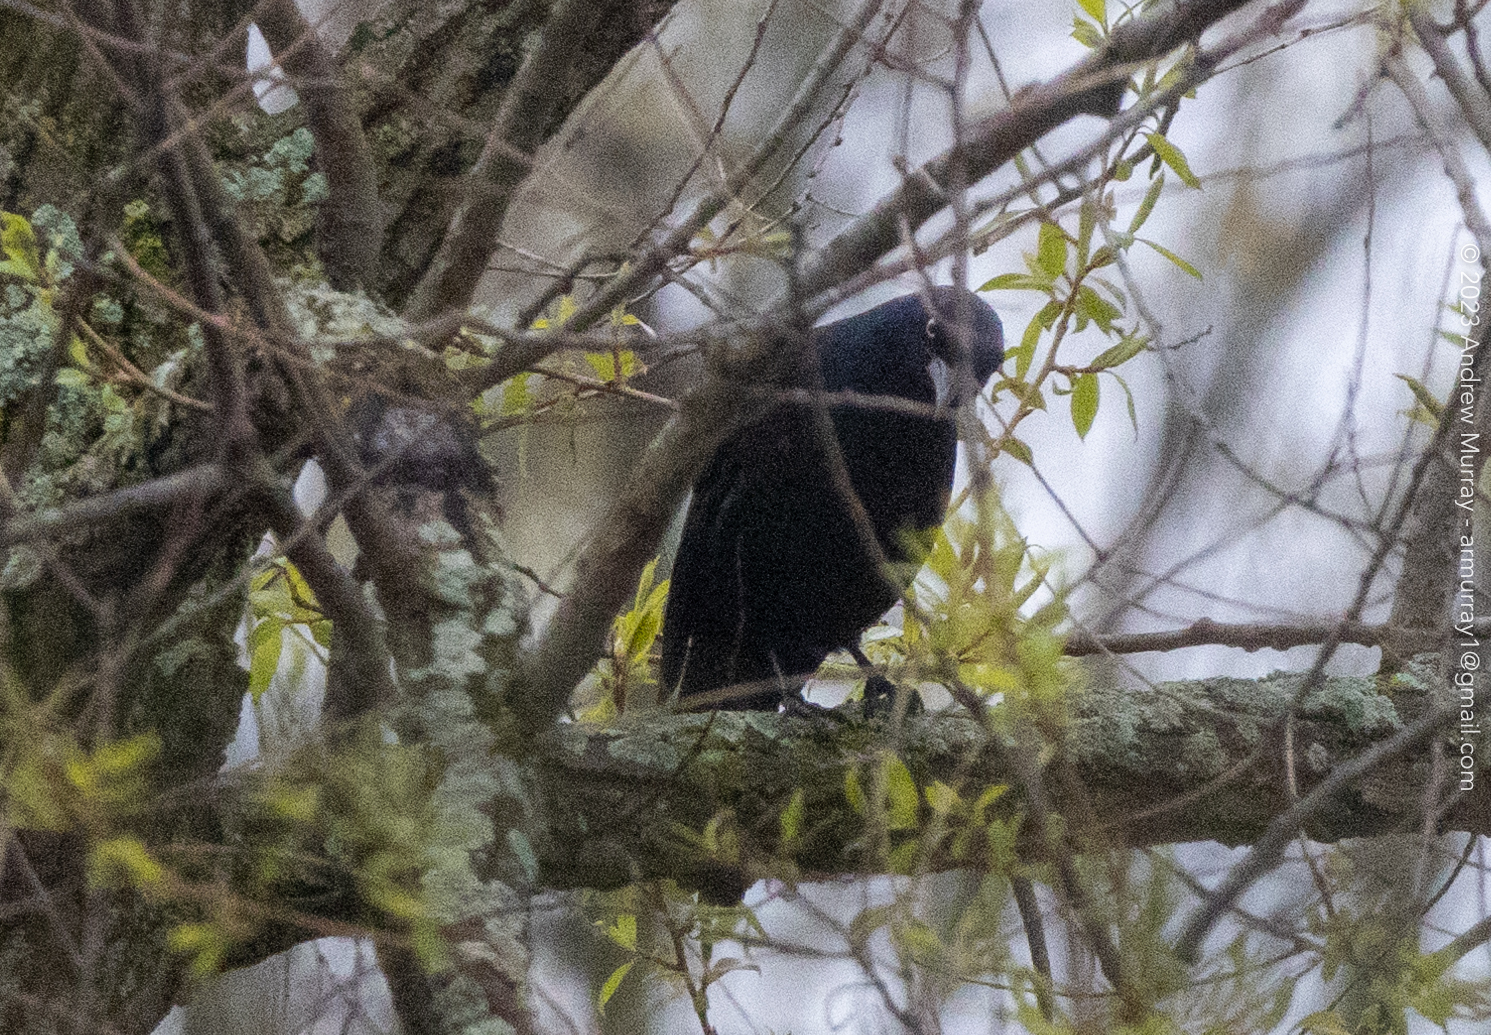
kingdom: Animalia
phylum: Chordata
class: Aves
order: Passeriformes
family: Icteridae
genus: Quiscalus
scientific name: Quiscalus quiscula
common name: Common grackle
